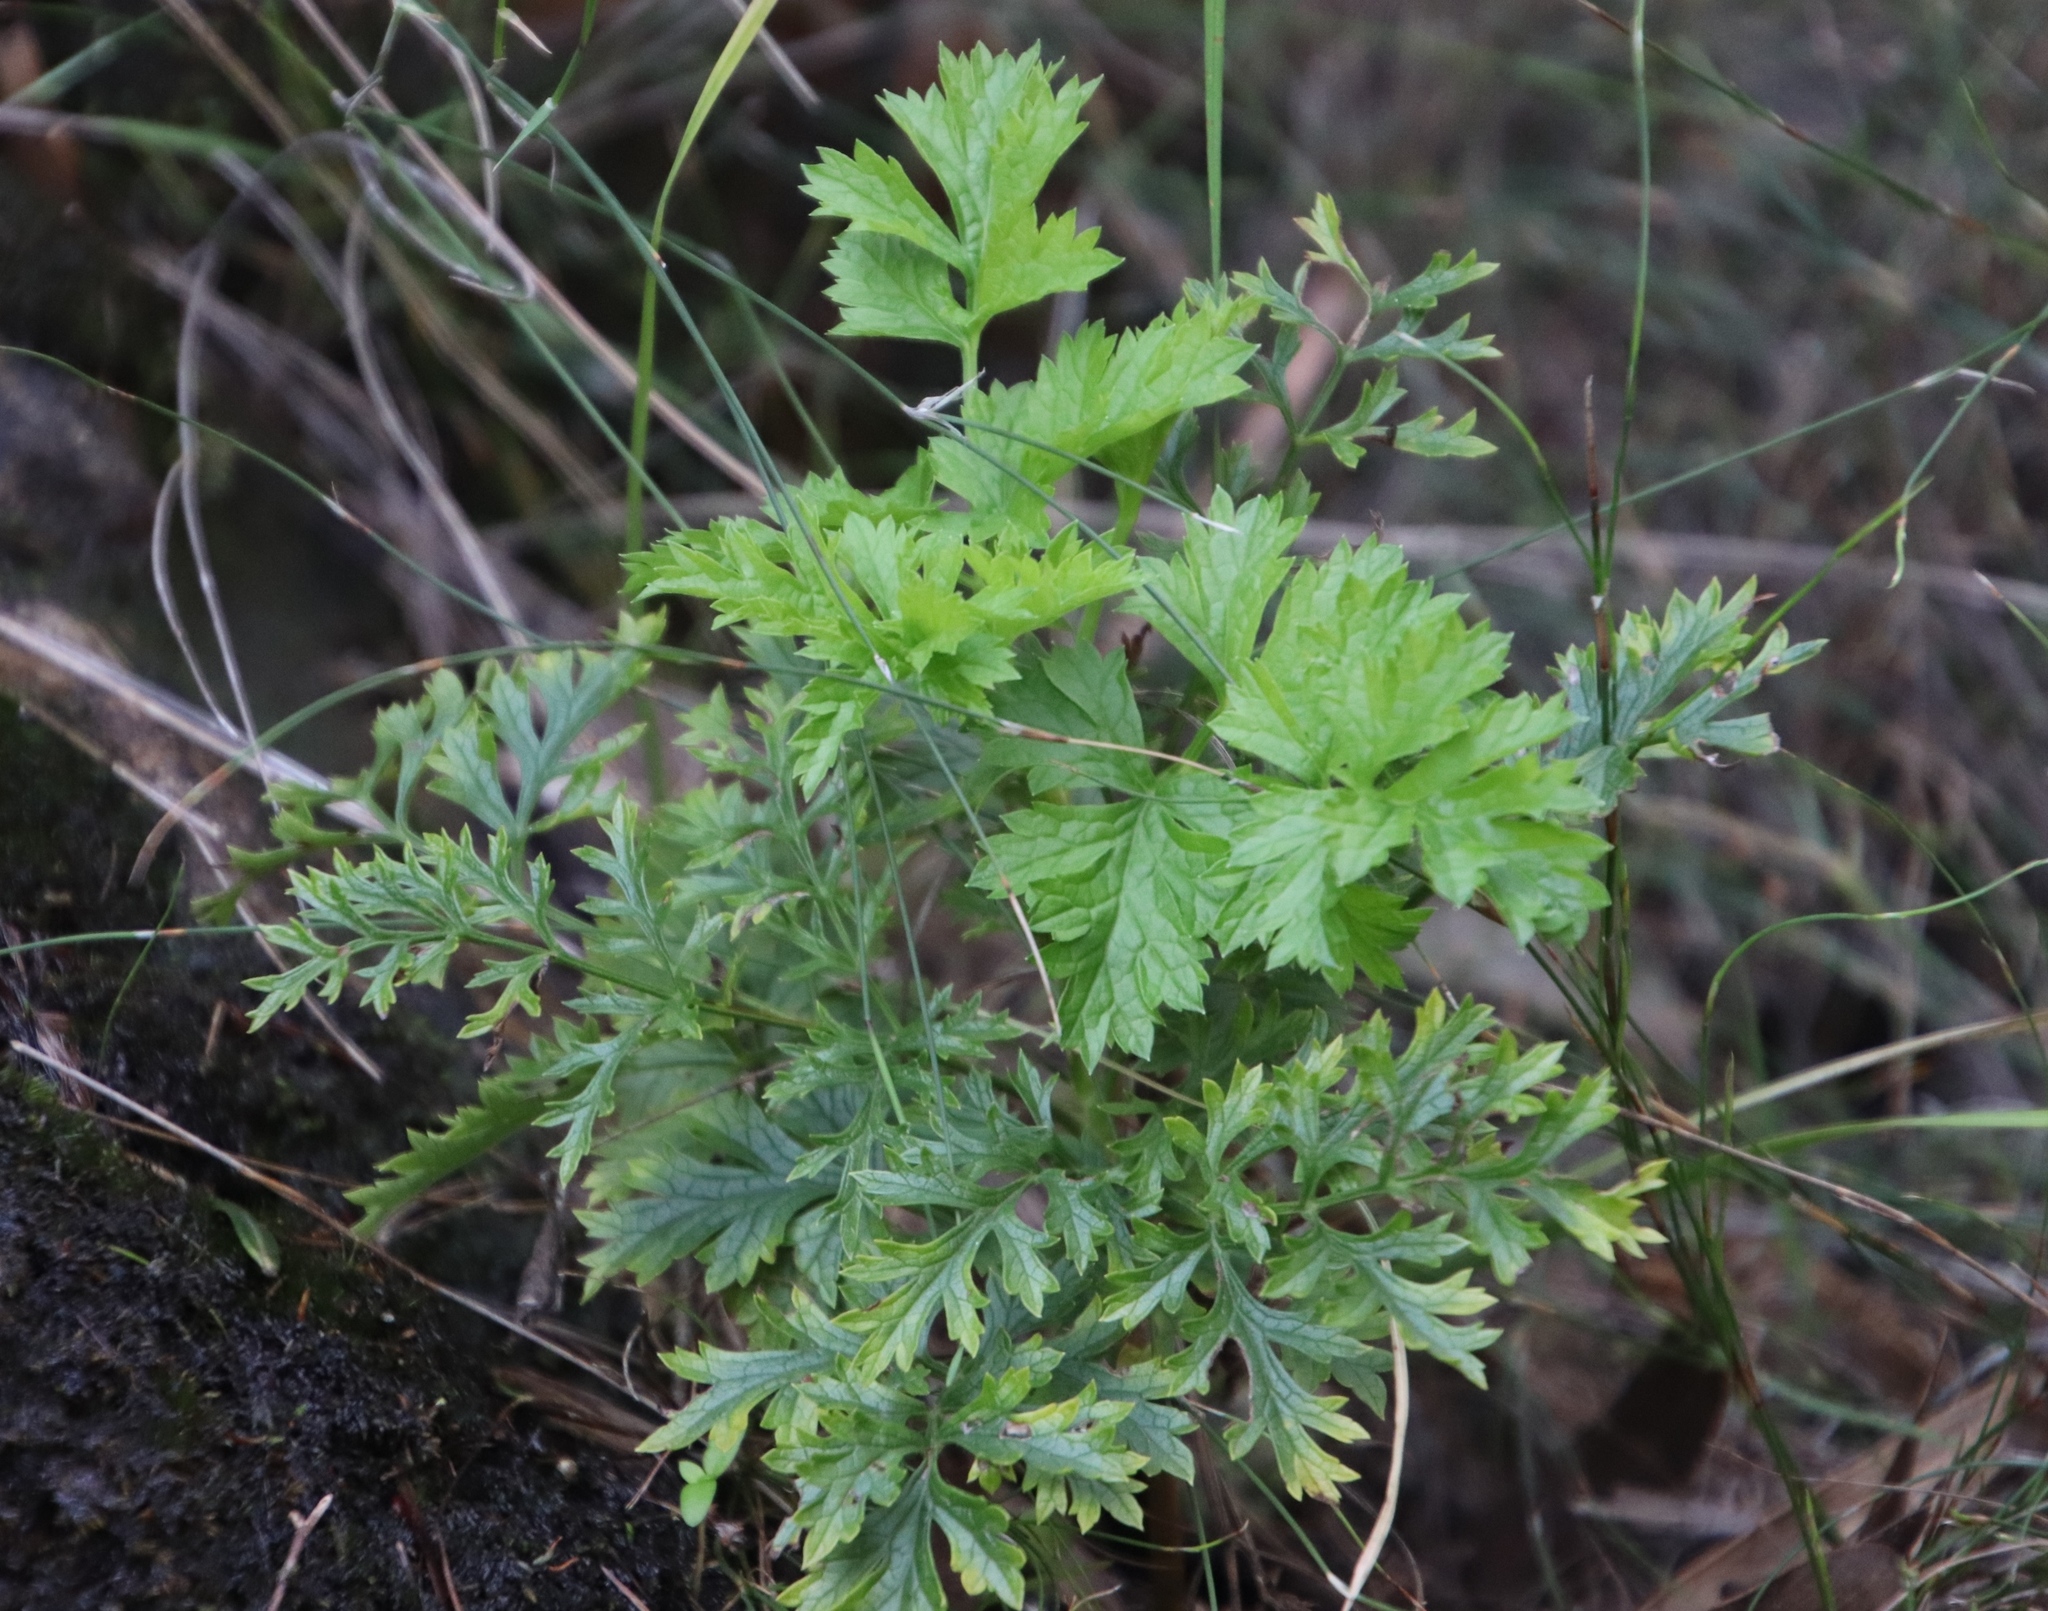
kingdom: Plantae
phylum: Tracheophyta
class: Magnoliopsida
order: Apiales
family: Apiaceae
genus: Glia
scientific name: Glia prolifera
